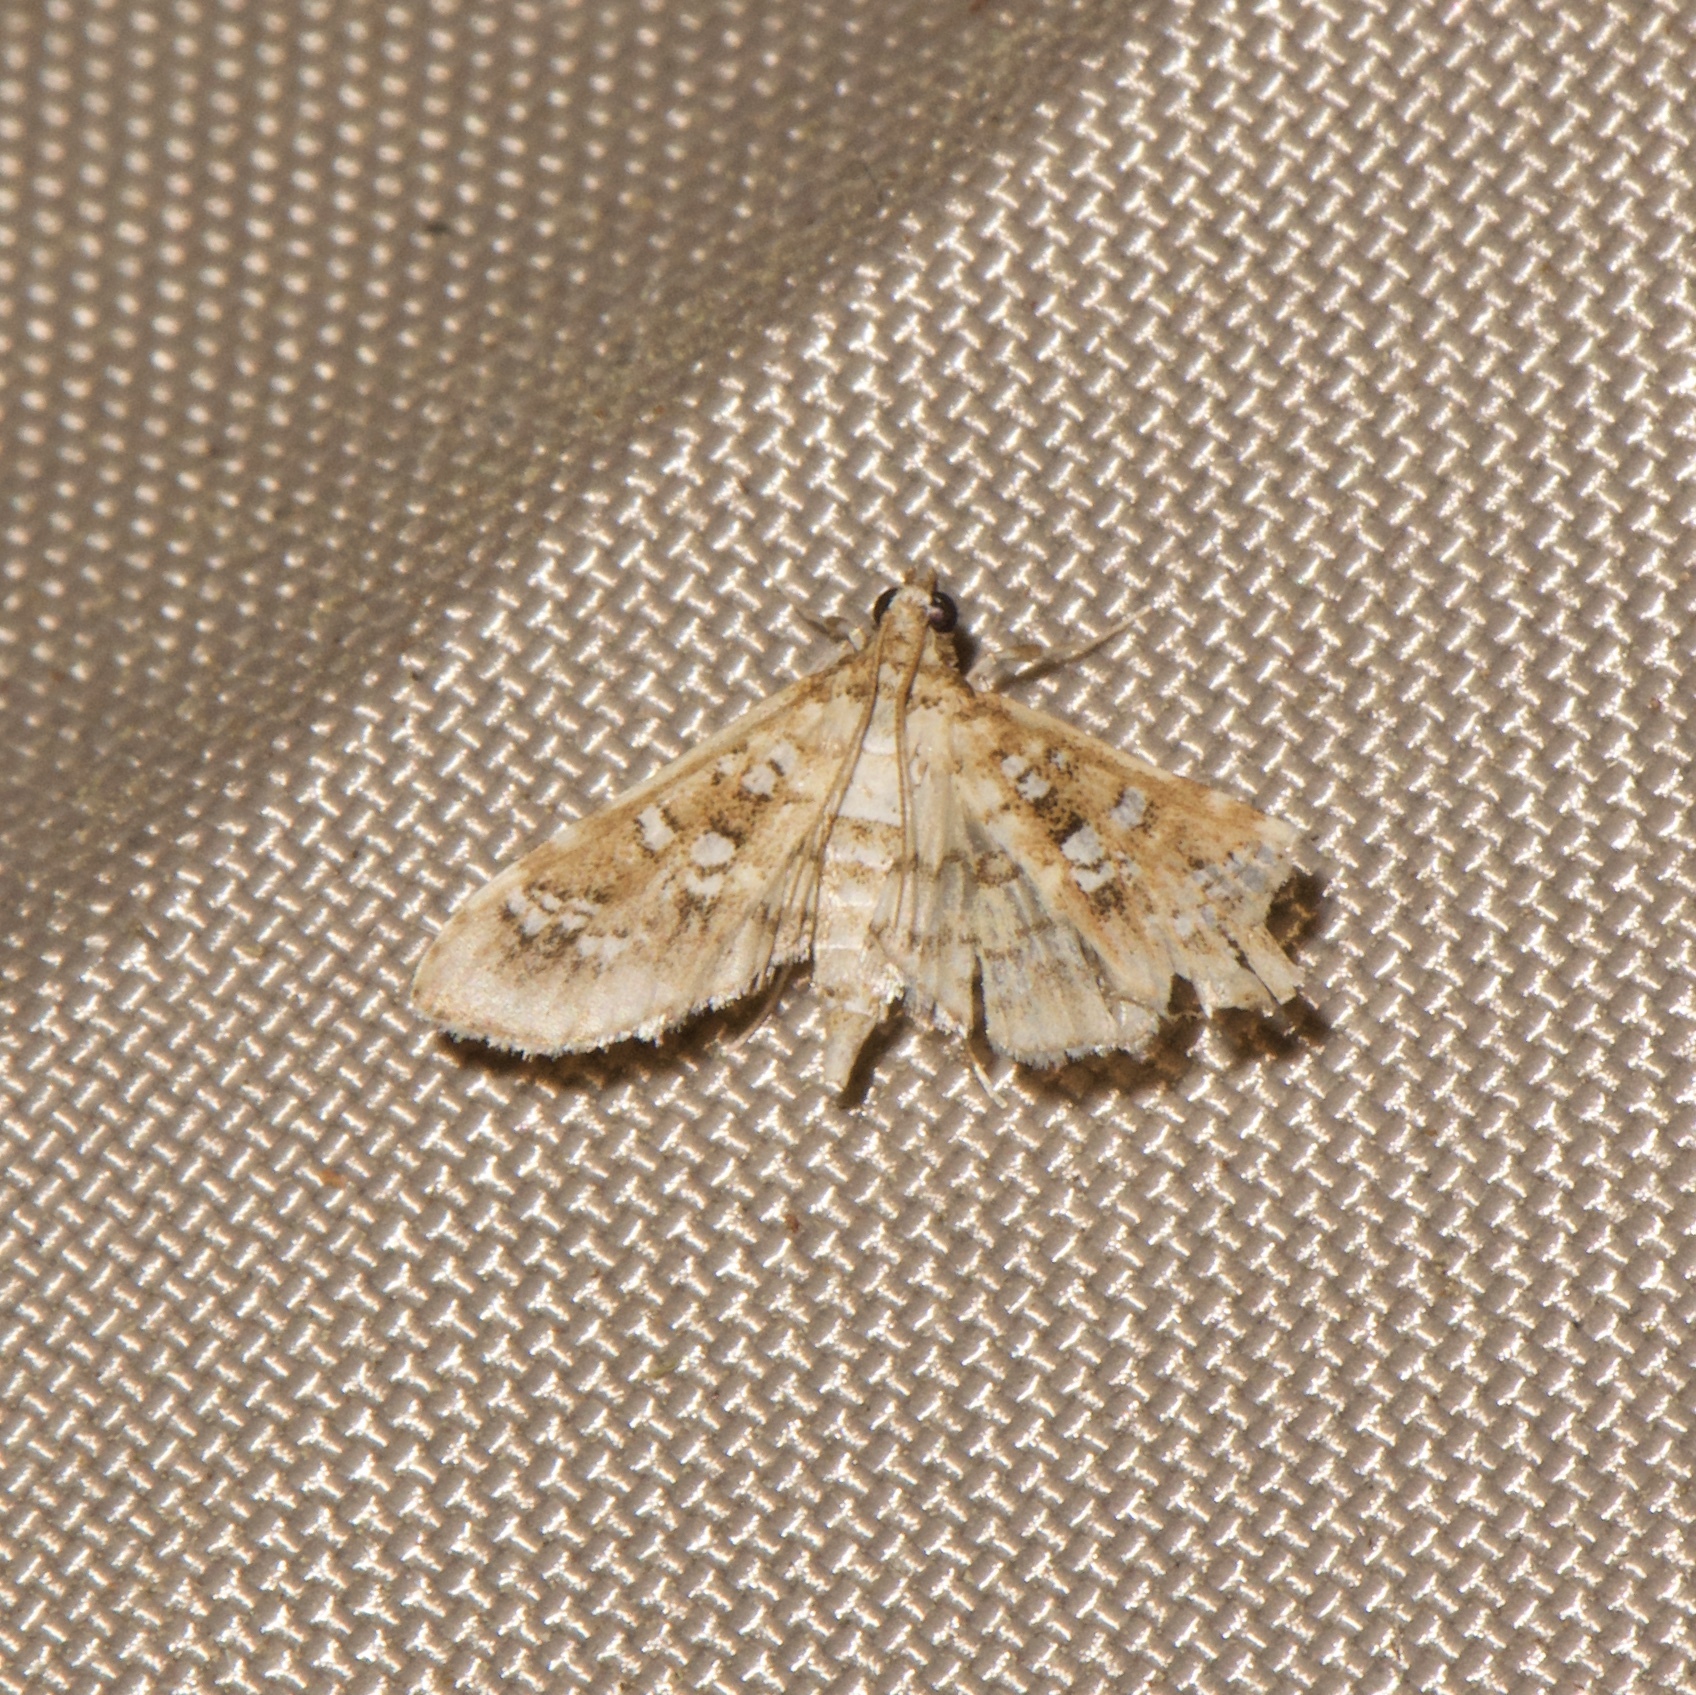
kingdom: Animalia
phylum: Arthropoda
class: Insecta
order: Lepidoptera
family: Crambidae
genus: Samea
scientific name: Samea multiplicalis
